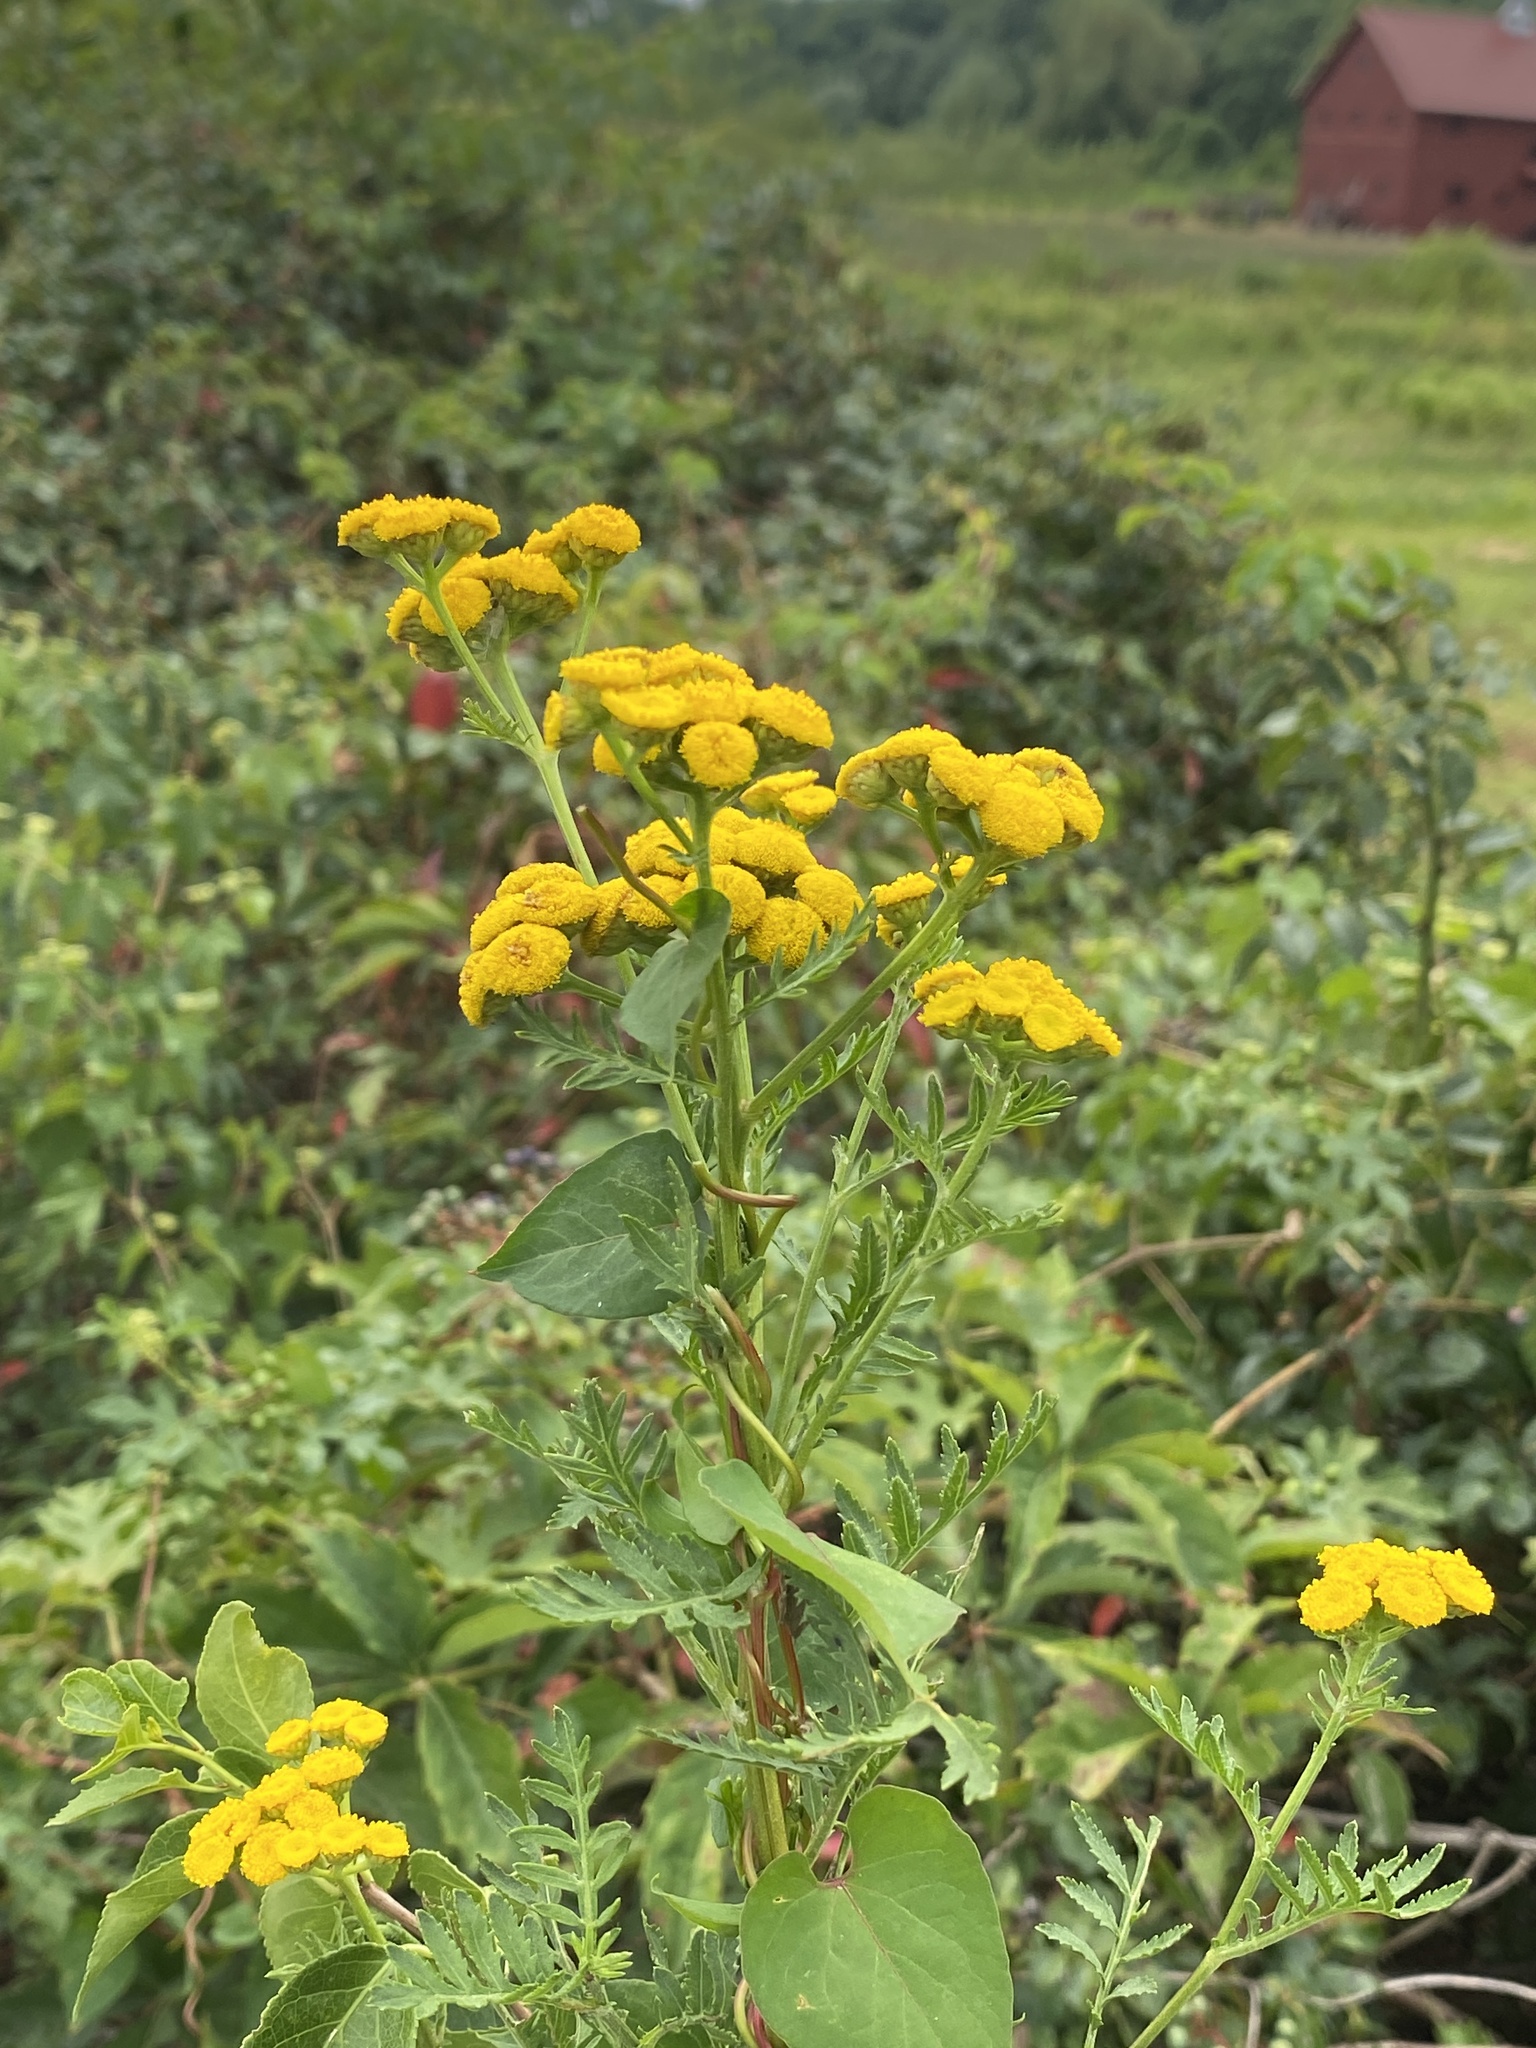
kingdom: Plantae
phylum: Tracheophyta
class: Magnoliopsida
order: Asterales
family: Asteraceae
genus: Tanacetum
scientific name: Tanacetum vulgare
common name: Common tansy
